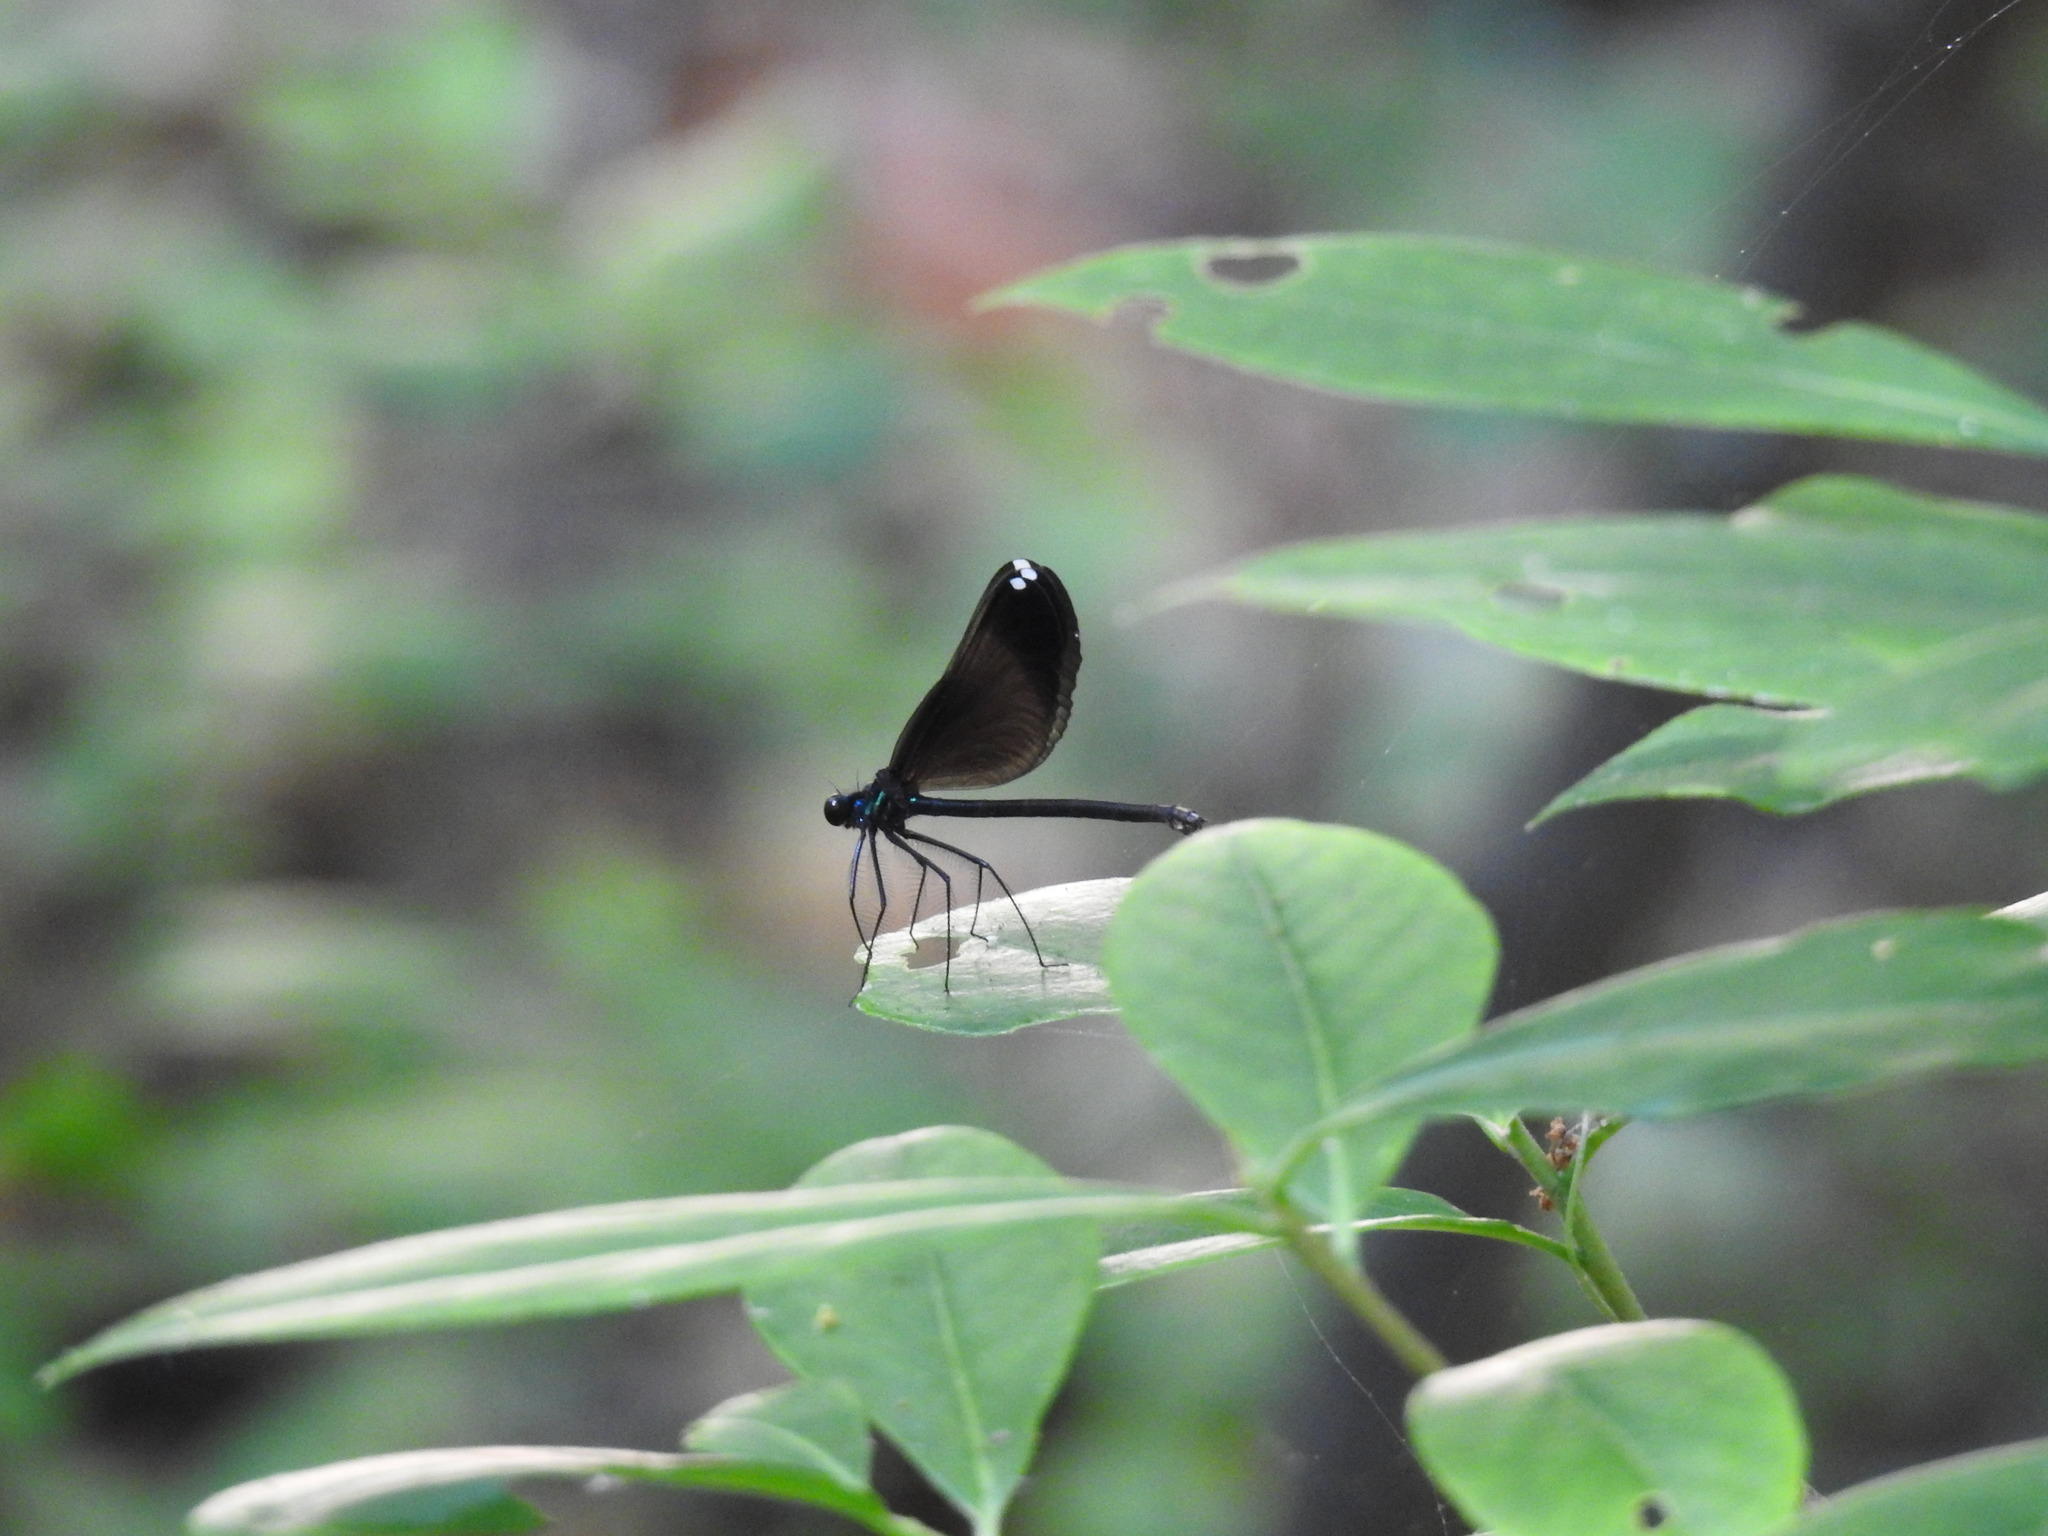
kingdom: Animalia
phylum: Arthropoda
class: Insecta
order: Odonata
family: Calopterygidae
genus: Calopteryx
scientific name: Calopteryx maculata
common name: Ebony jewelwing
